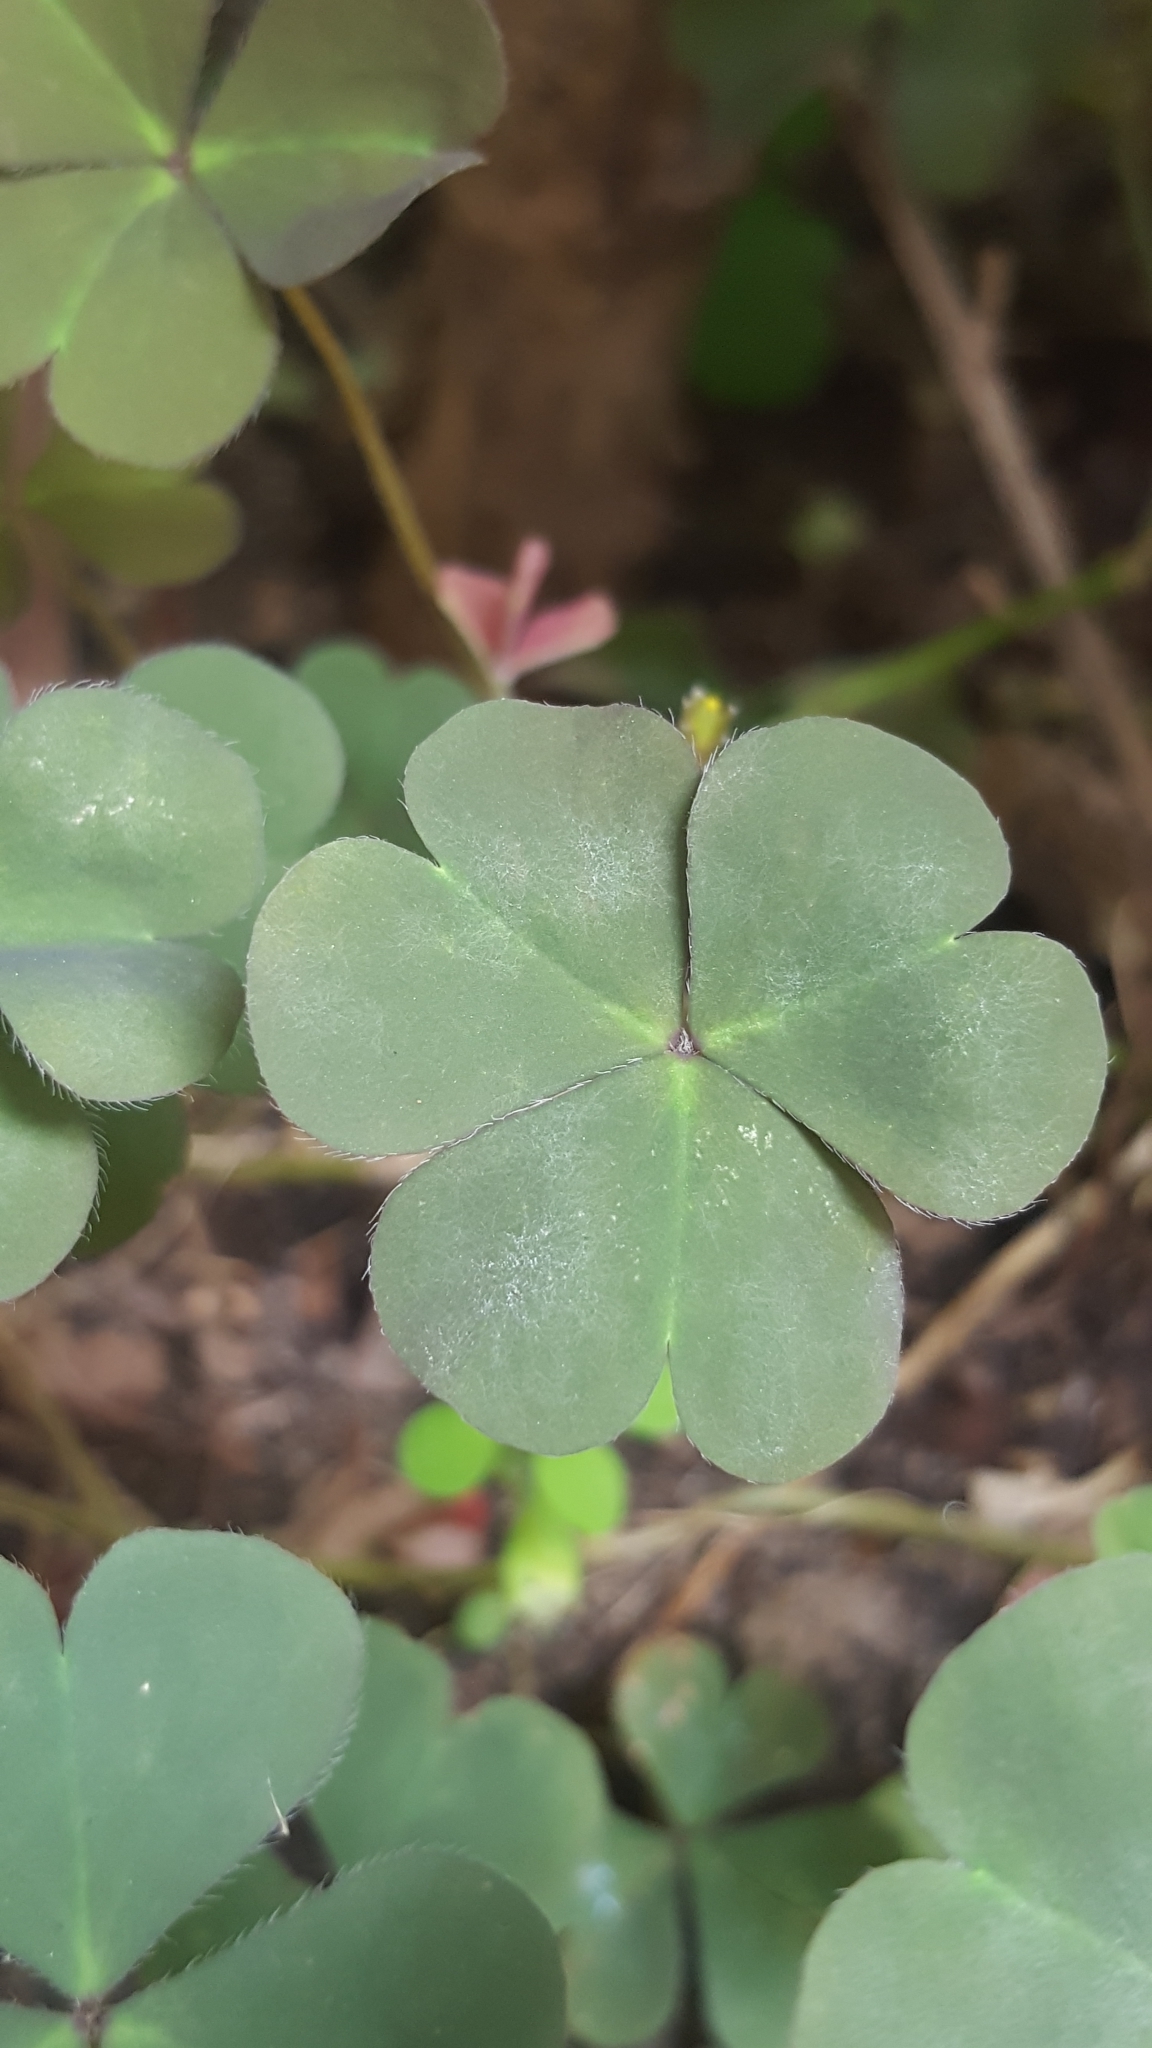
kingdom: Plantae
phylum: Tracheophyta
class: Magnoliopsida
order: Oxalidales
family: Oxalidaceae
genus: Oxalis
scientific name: Oxalis corniculata
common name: Procumbent yellow-sorrel
